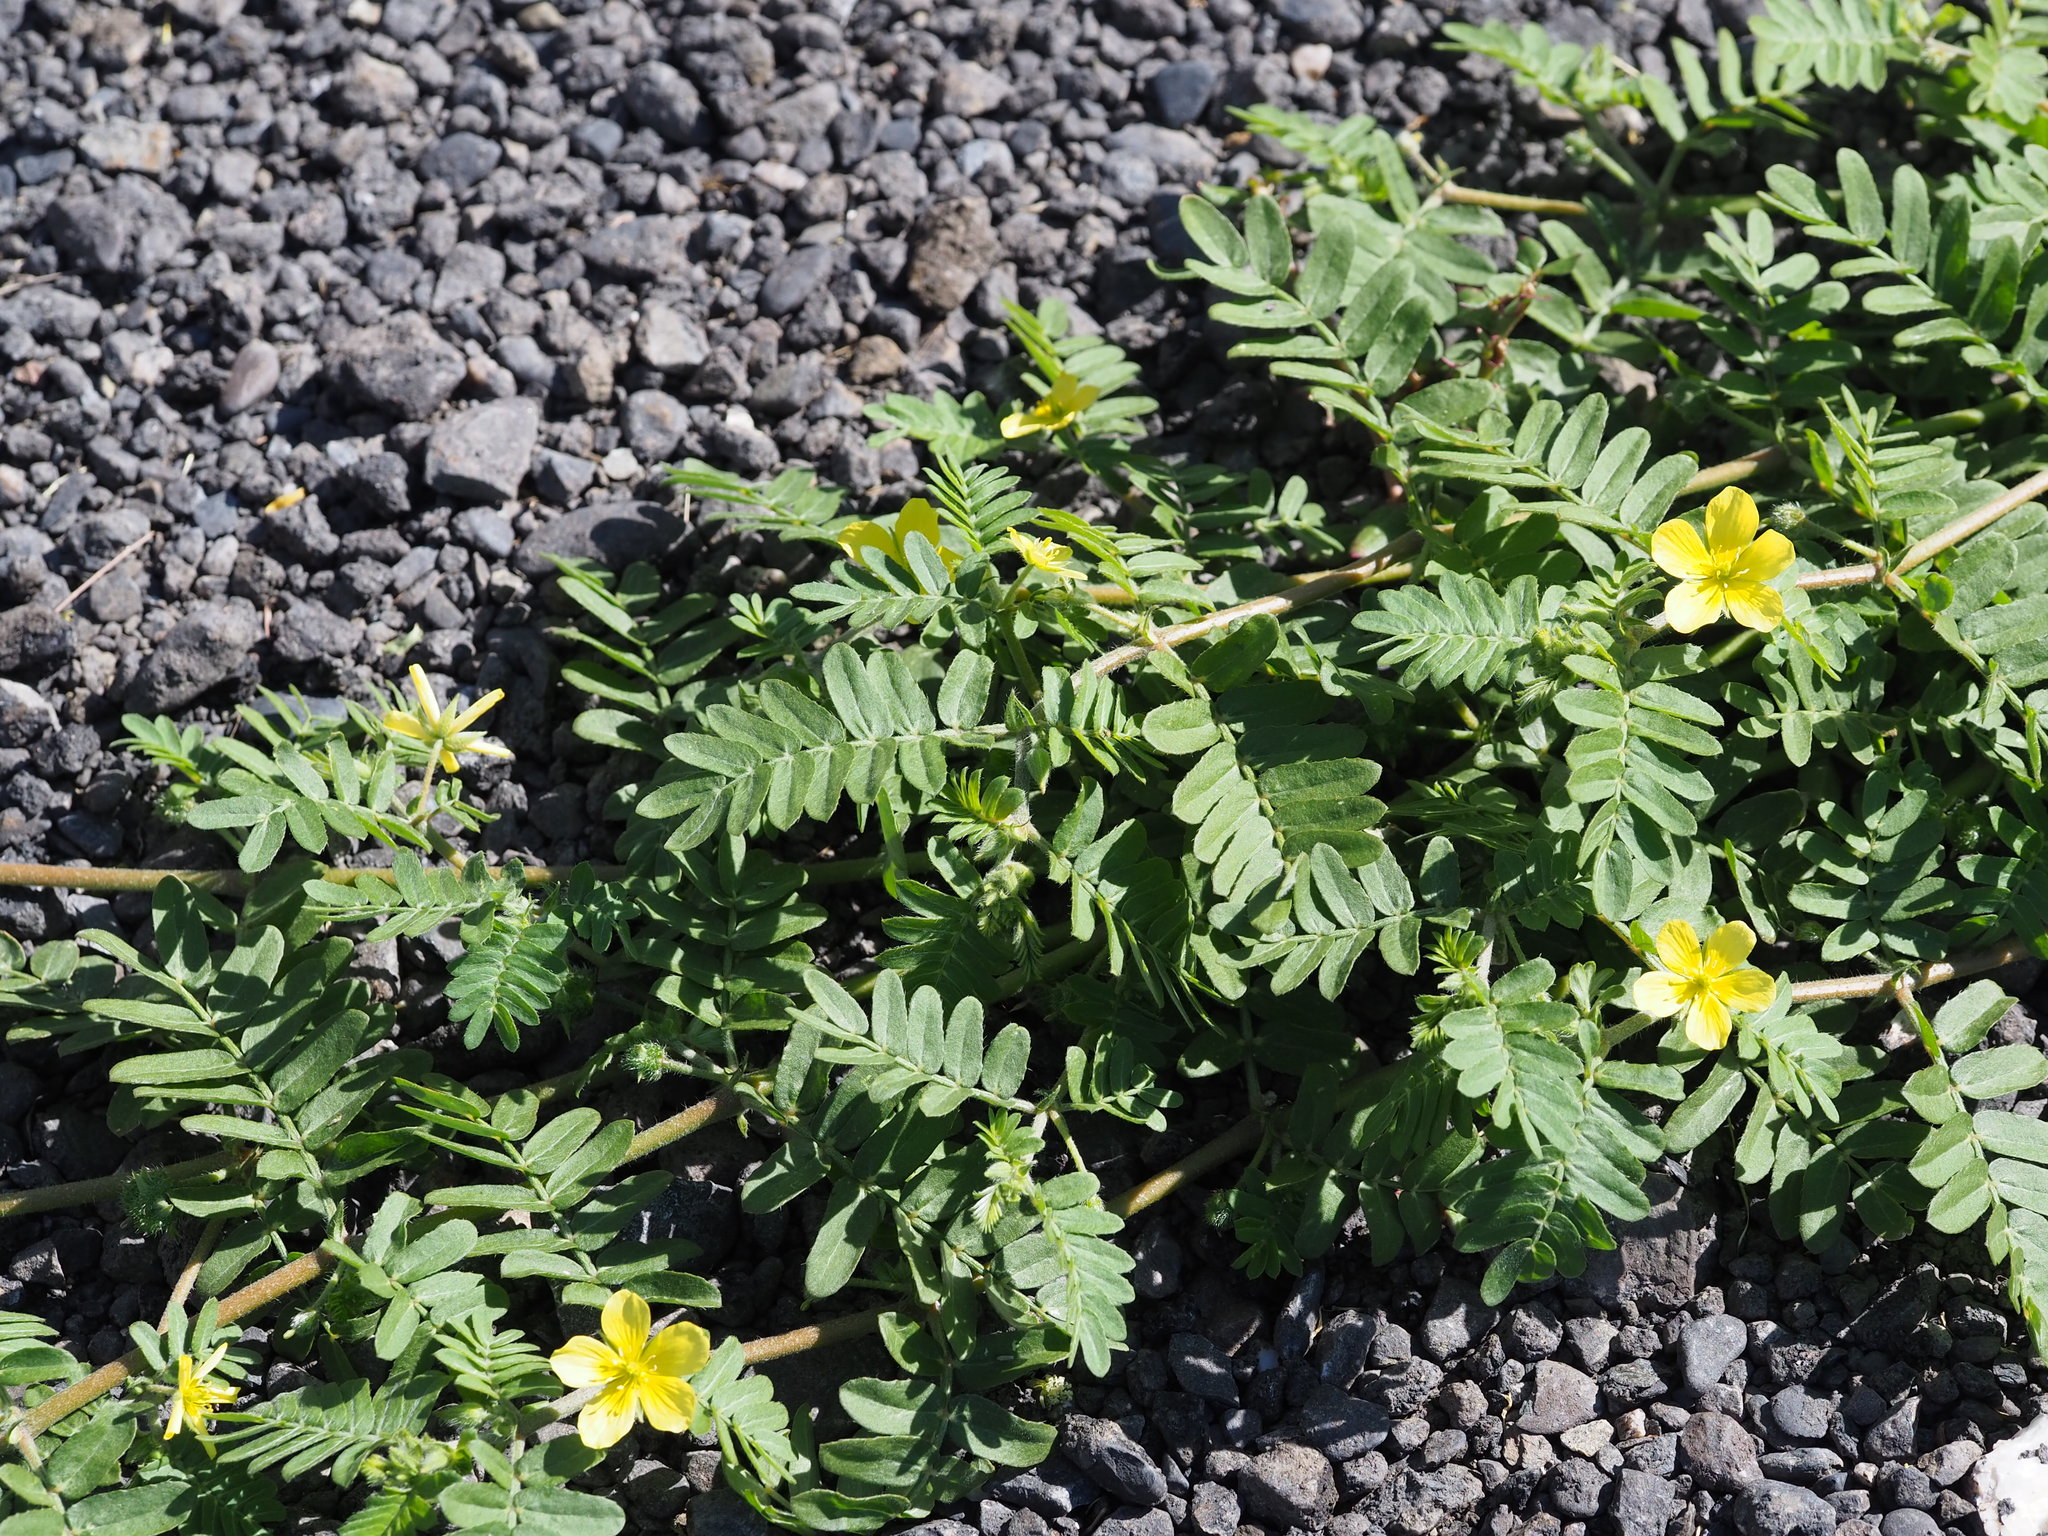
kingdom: Plantae
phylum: Tracheophyta
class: Magnoliopsida
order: Zygophyllales
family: Zygophyllaceae
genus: Tribulus
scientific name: Tribulus cistoides
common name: Jamaican feverplant
